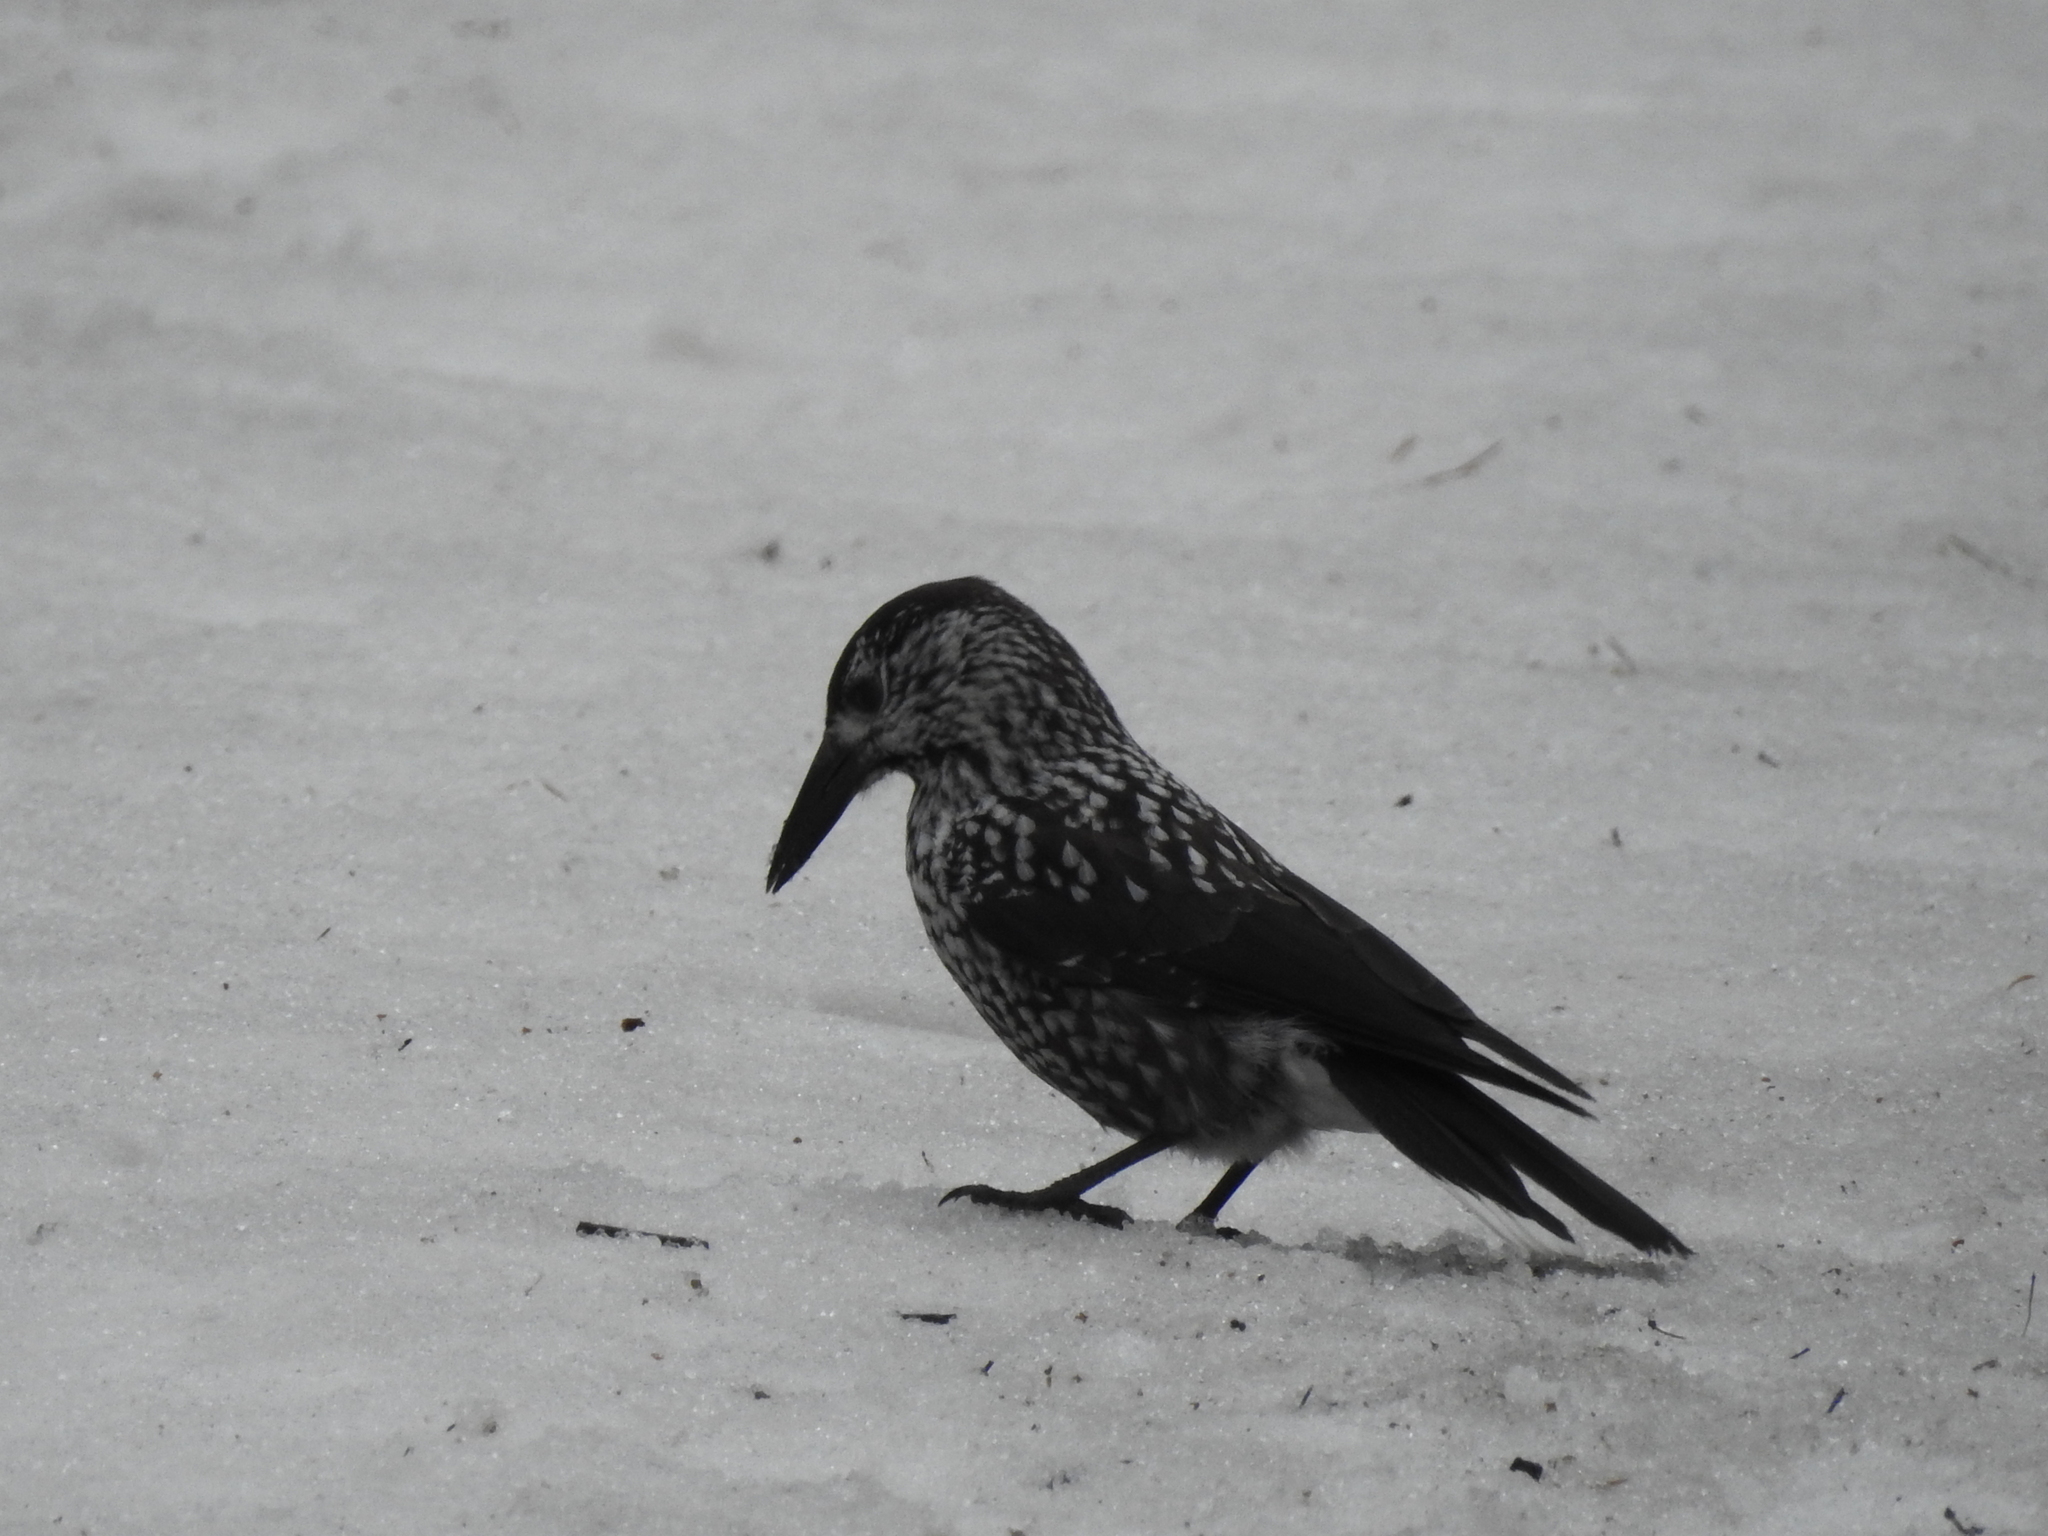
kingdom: Animalia
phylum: Chordata
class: Aves
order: Passeriformes
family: Corvidae
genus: Nucifraga
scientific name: Nucifraga caryocatactes
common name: Spotted nutcracker
